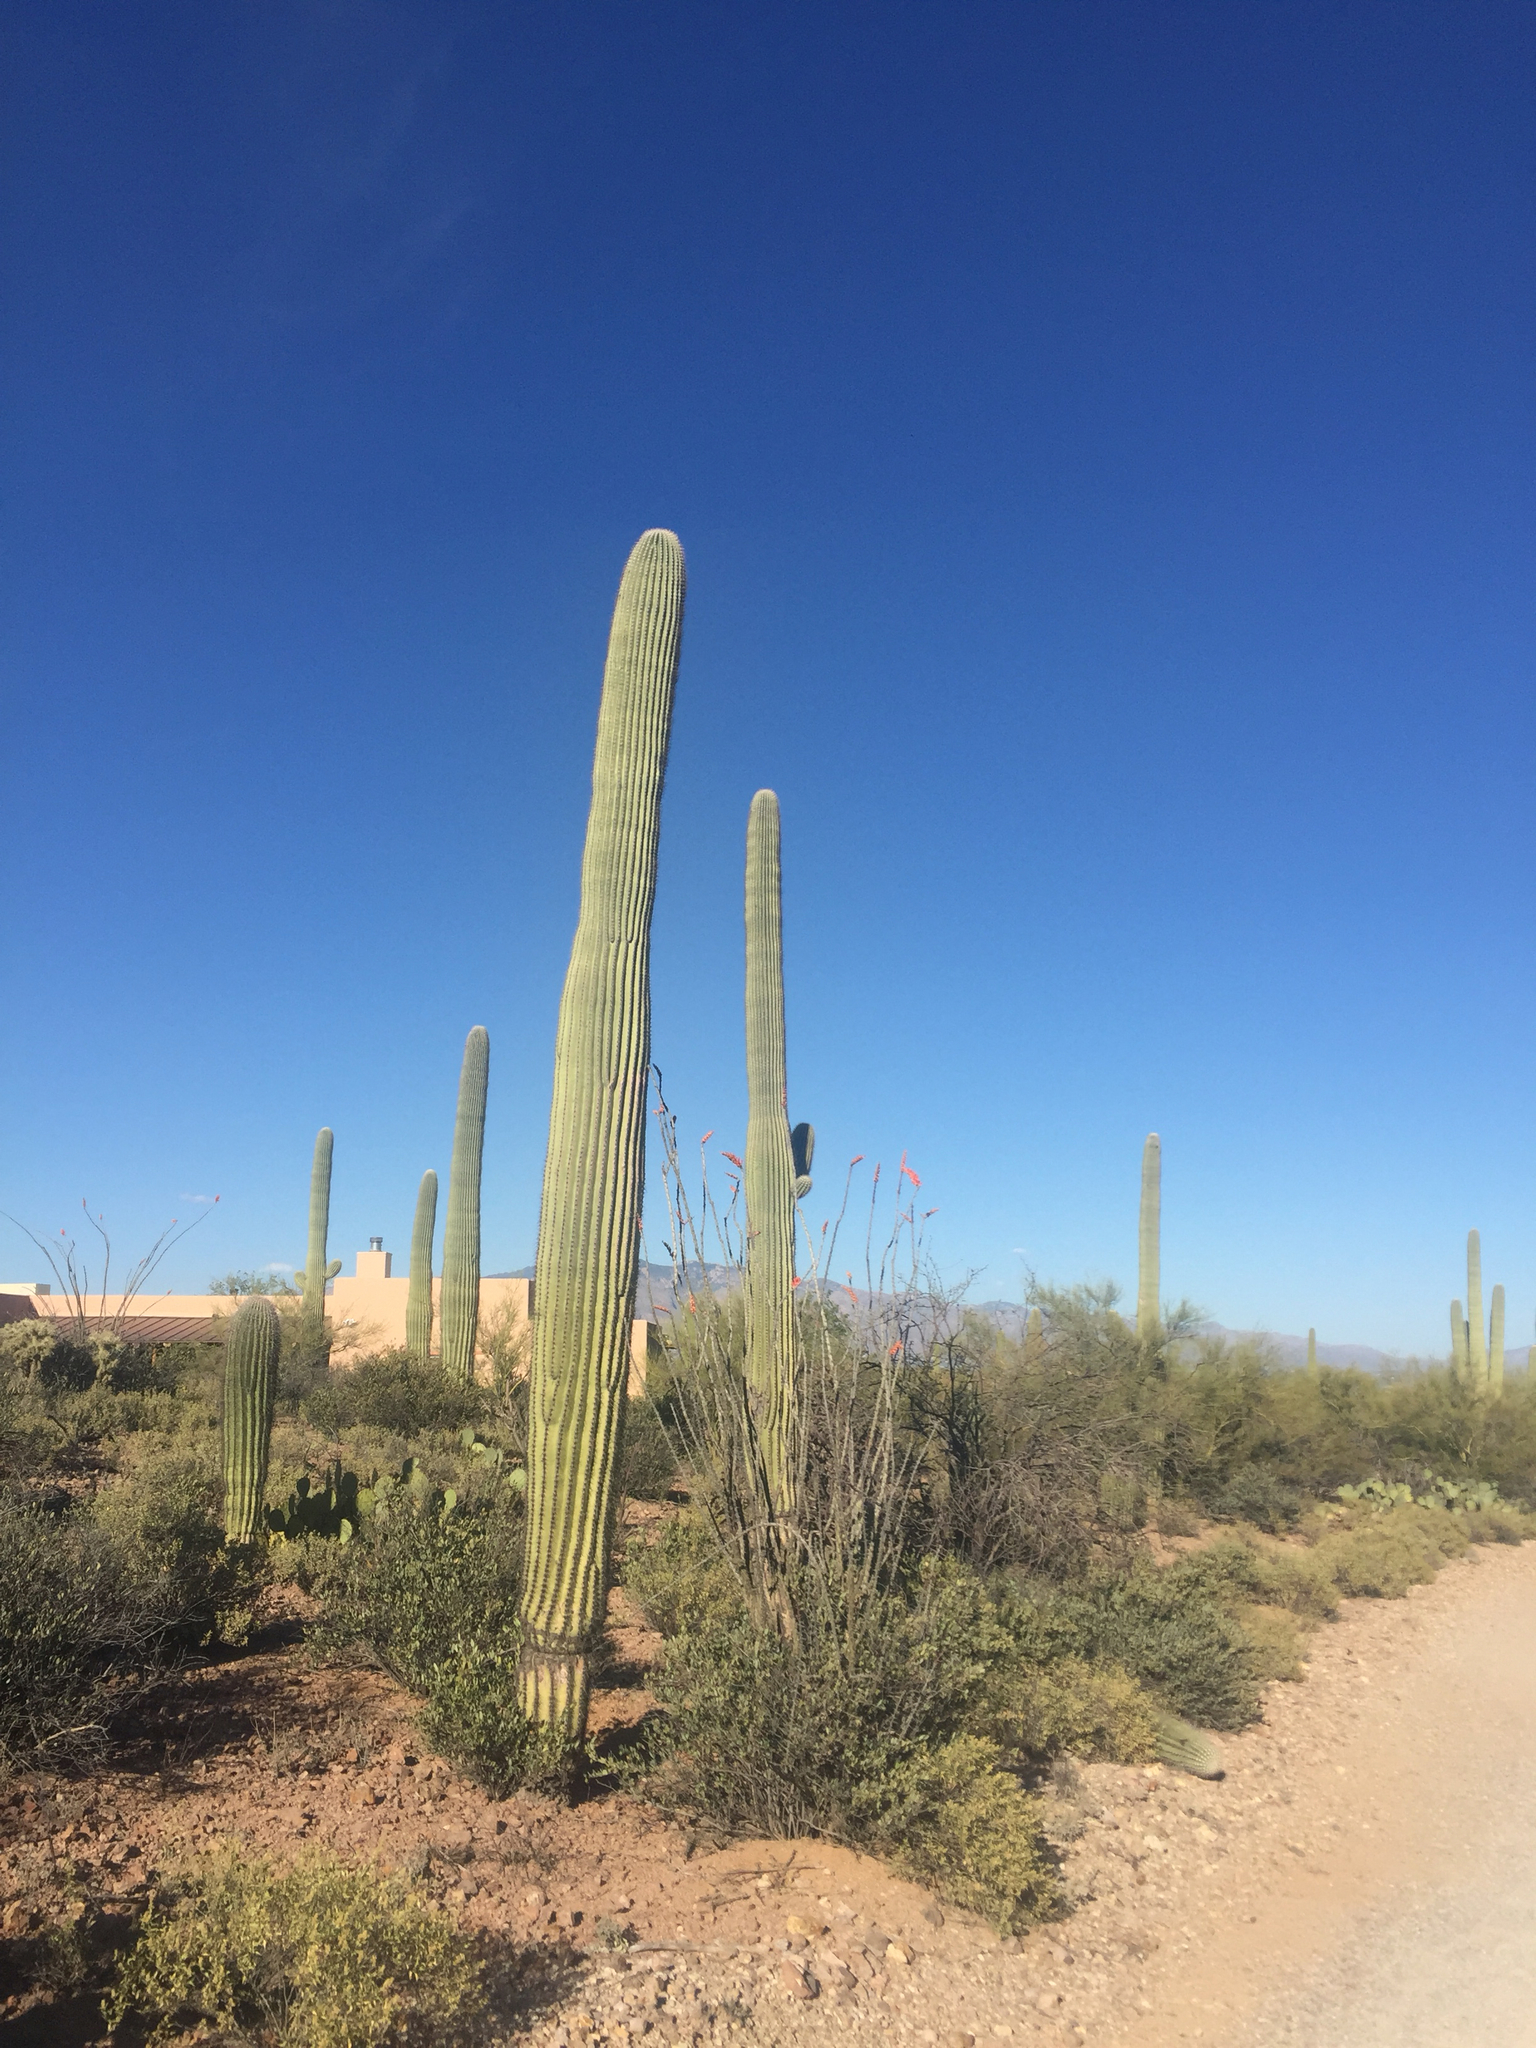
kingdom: Plantae
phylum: Tracheophyta
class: Magnoliopsida
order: Caryophyllales
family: Cactaceae
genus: Carnegiea
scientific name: Carnegiea gigantea
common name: Saguaro
